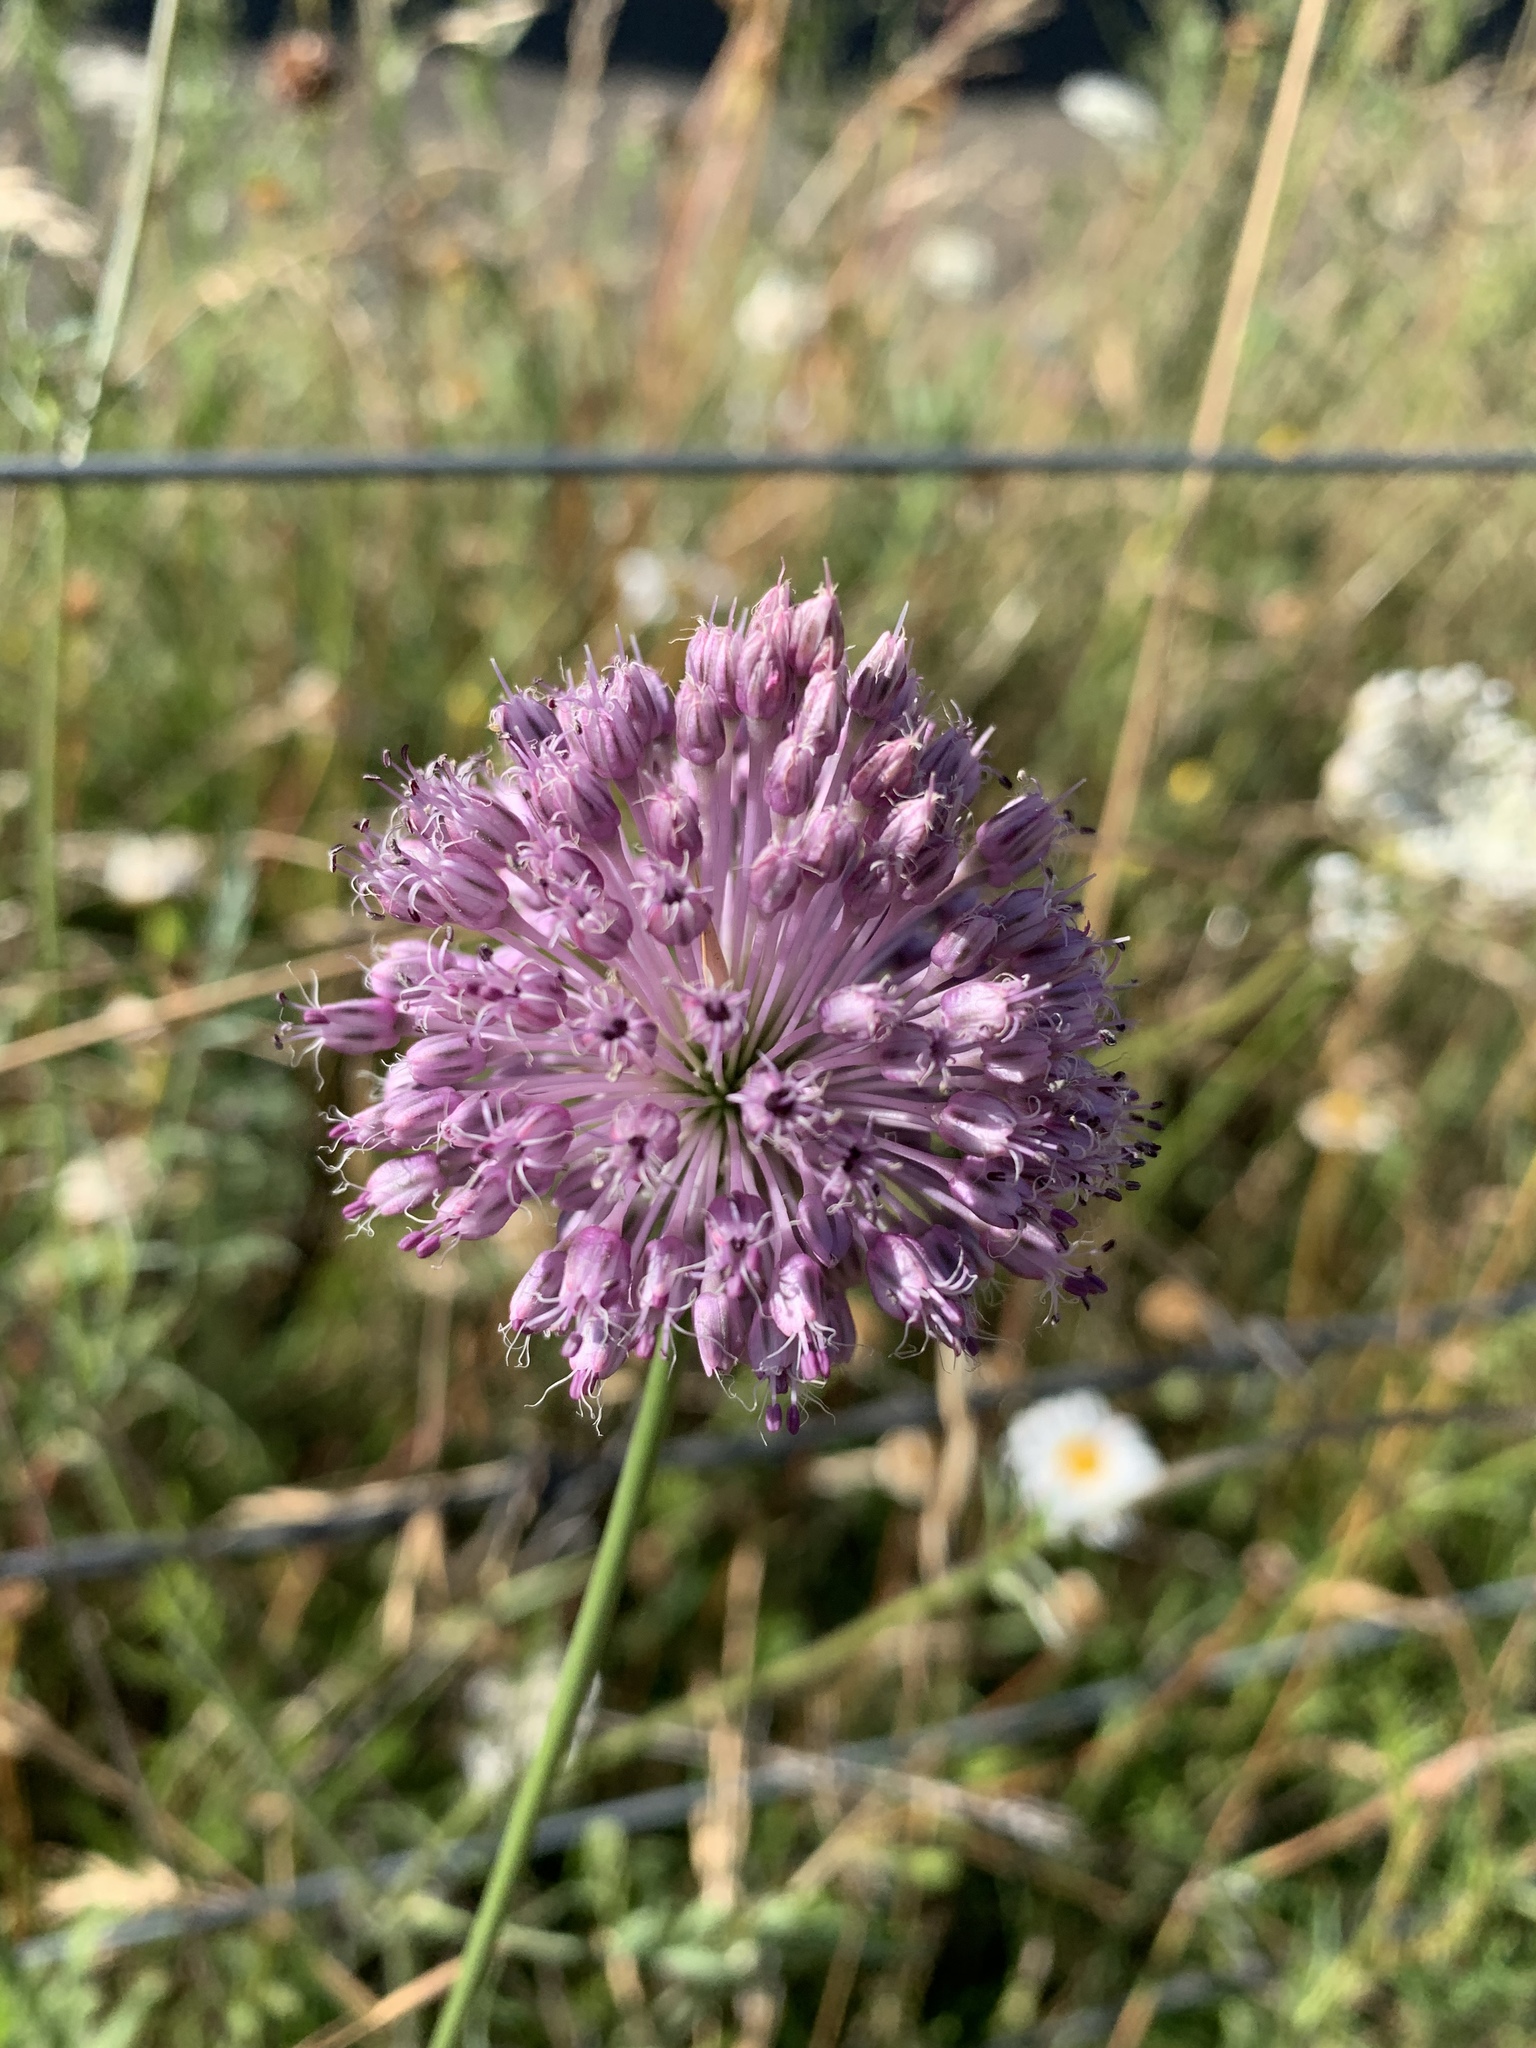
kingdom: Plantae
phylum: Tracheophyta
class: Liliopsida
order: Asparagales
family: Amaryllidaceae
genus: Allium
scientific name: Allium ampeloprasum
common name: Wild leek
